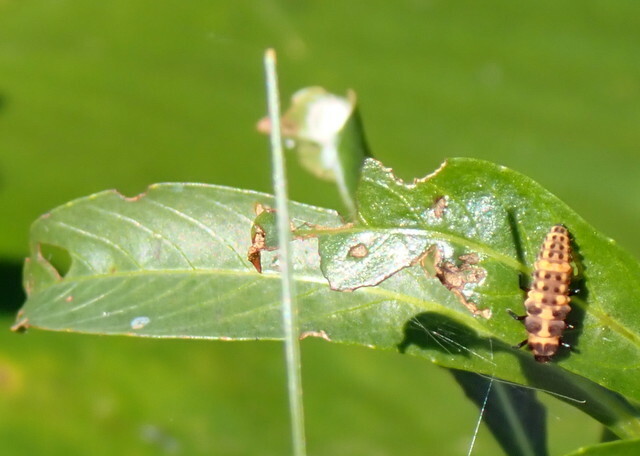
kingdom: Animalia
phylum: Arthropoda
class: Insecta
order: Coleoptera
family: Coccinellidae
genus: Coleomegilla
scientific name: Coleomegilla maculata
